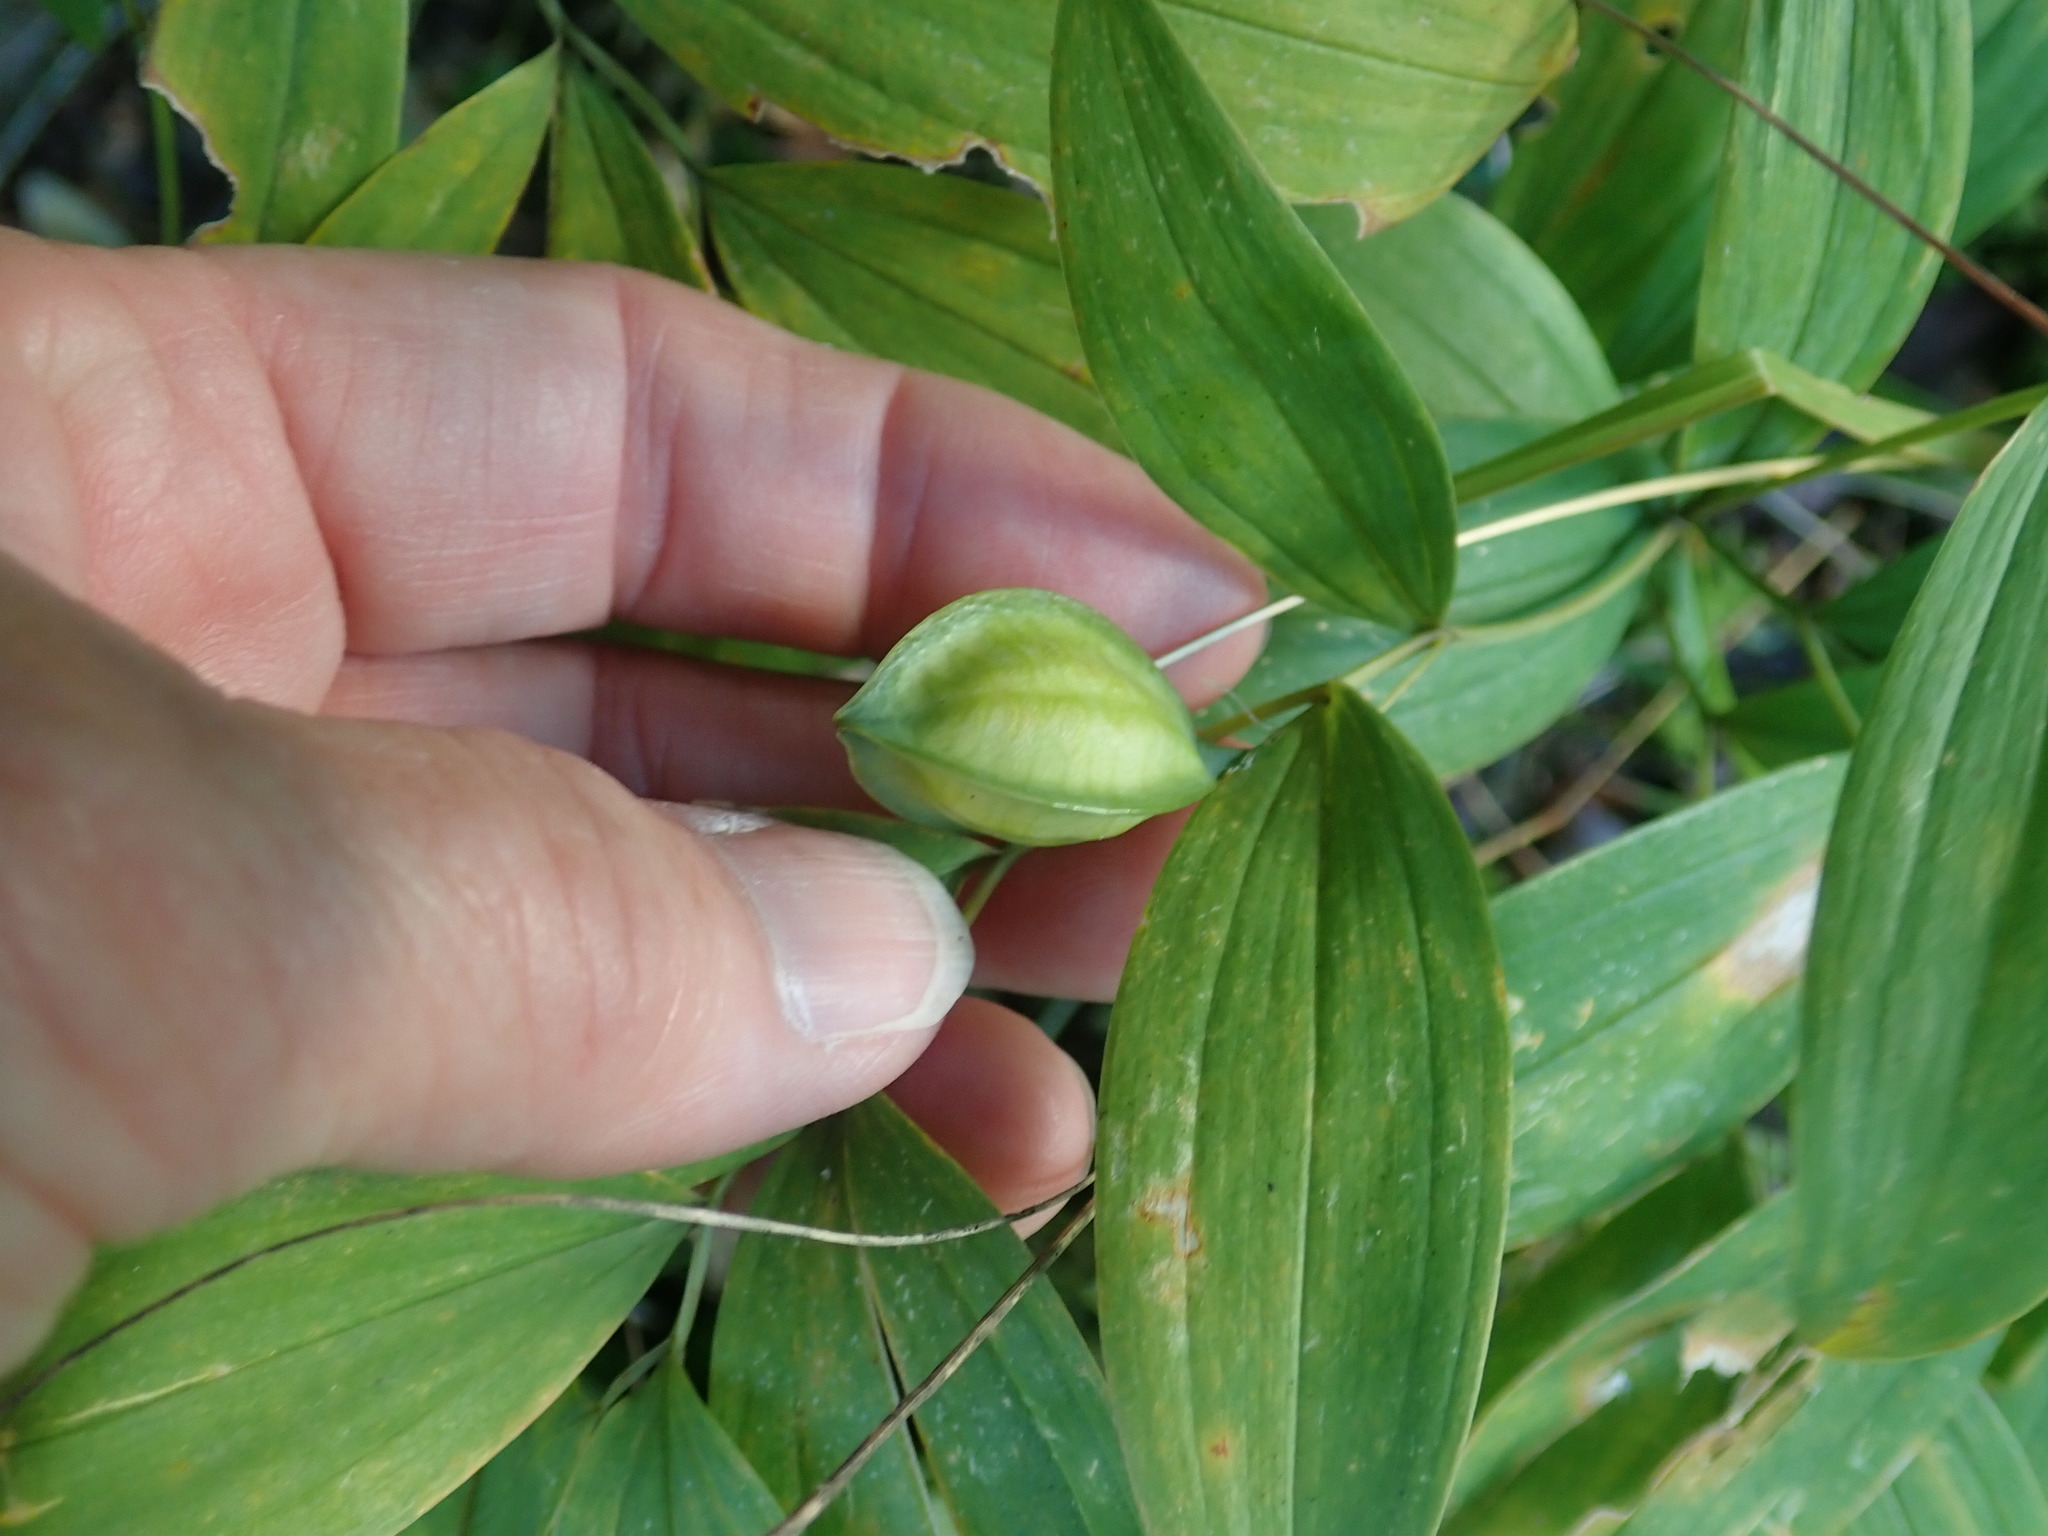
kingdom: Plantae
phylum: Tracheophyta
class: Liliopsida
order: Liliales
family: Colchicaceae
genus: Uvularia
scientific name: Uvularia sessilifolia
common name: Straw-lily
